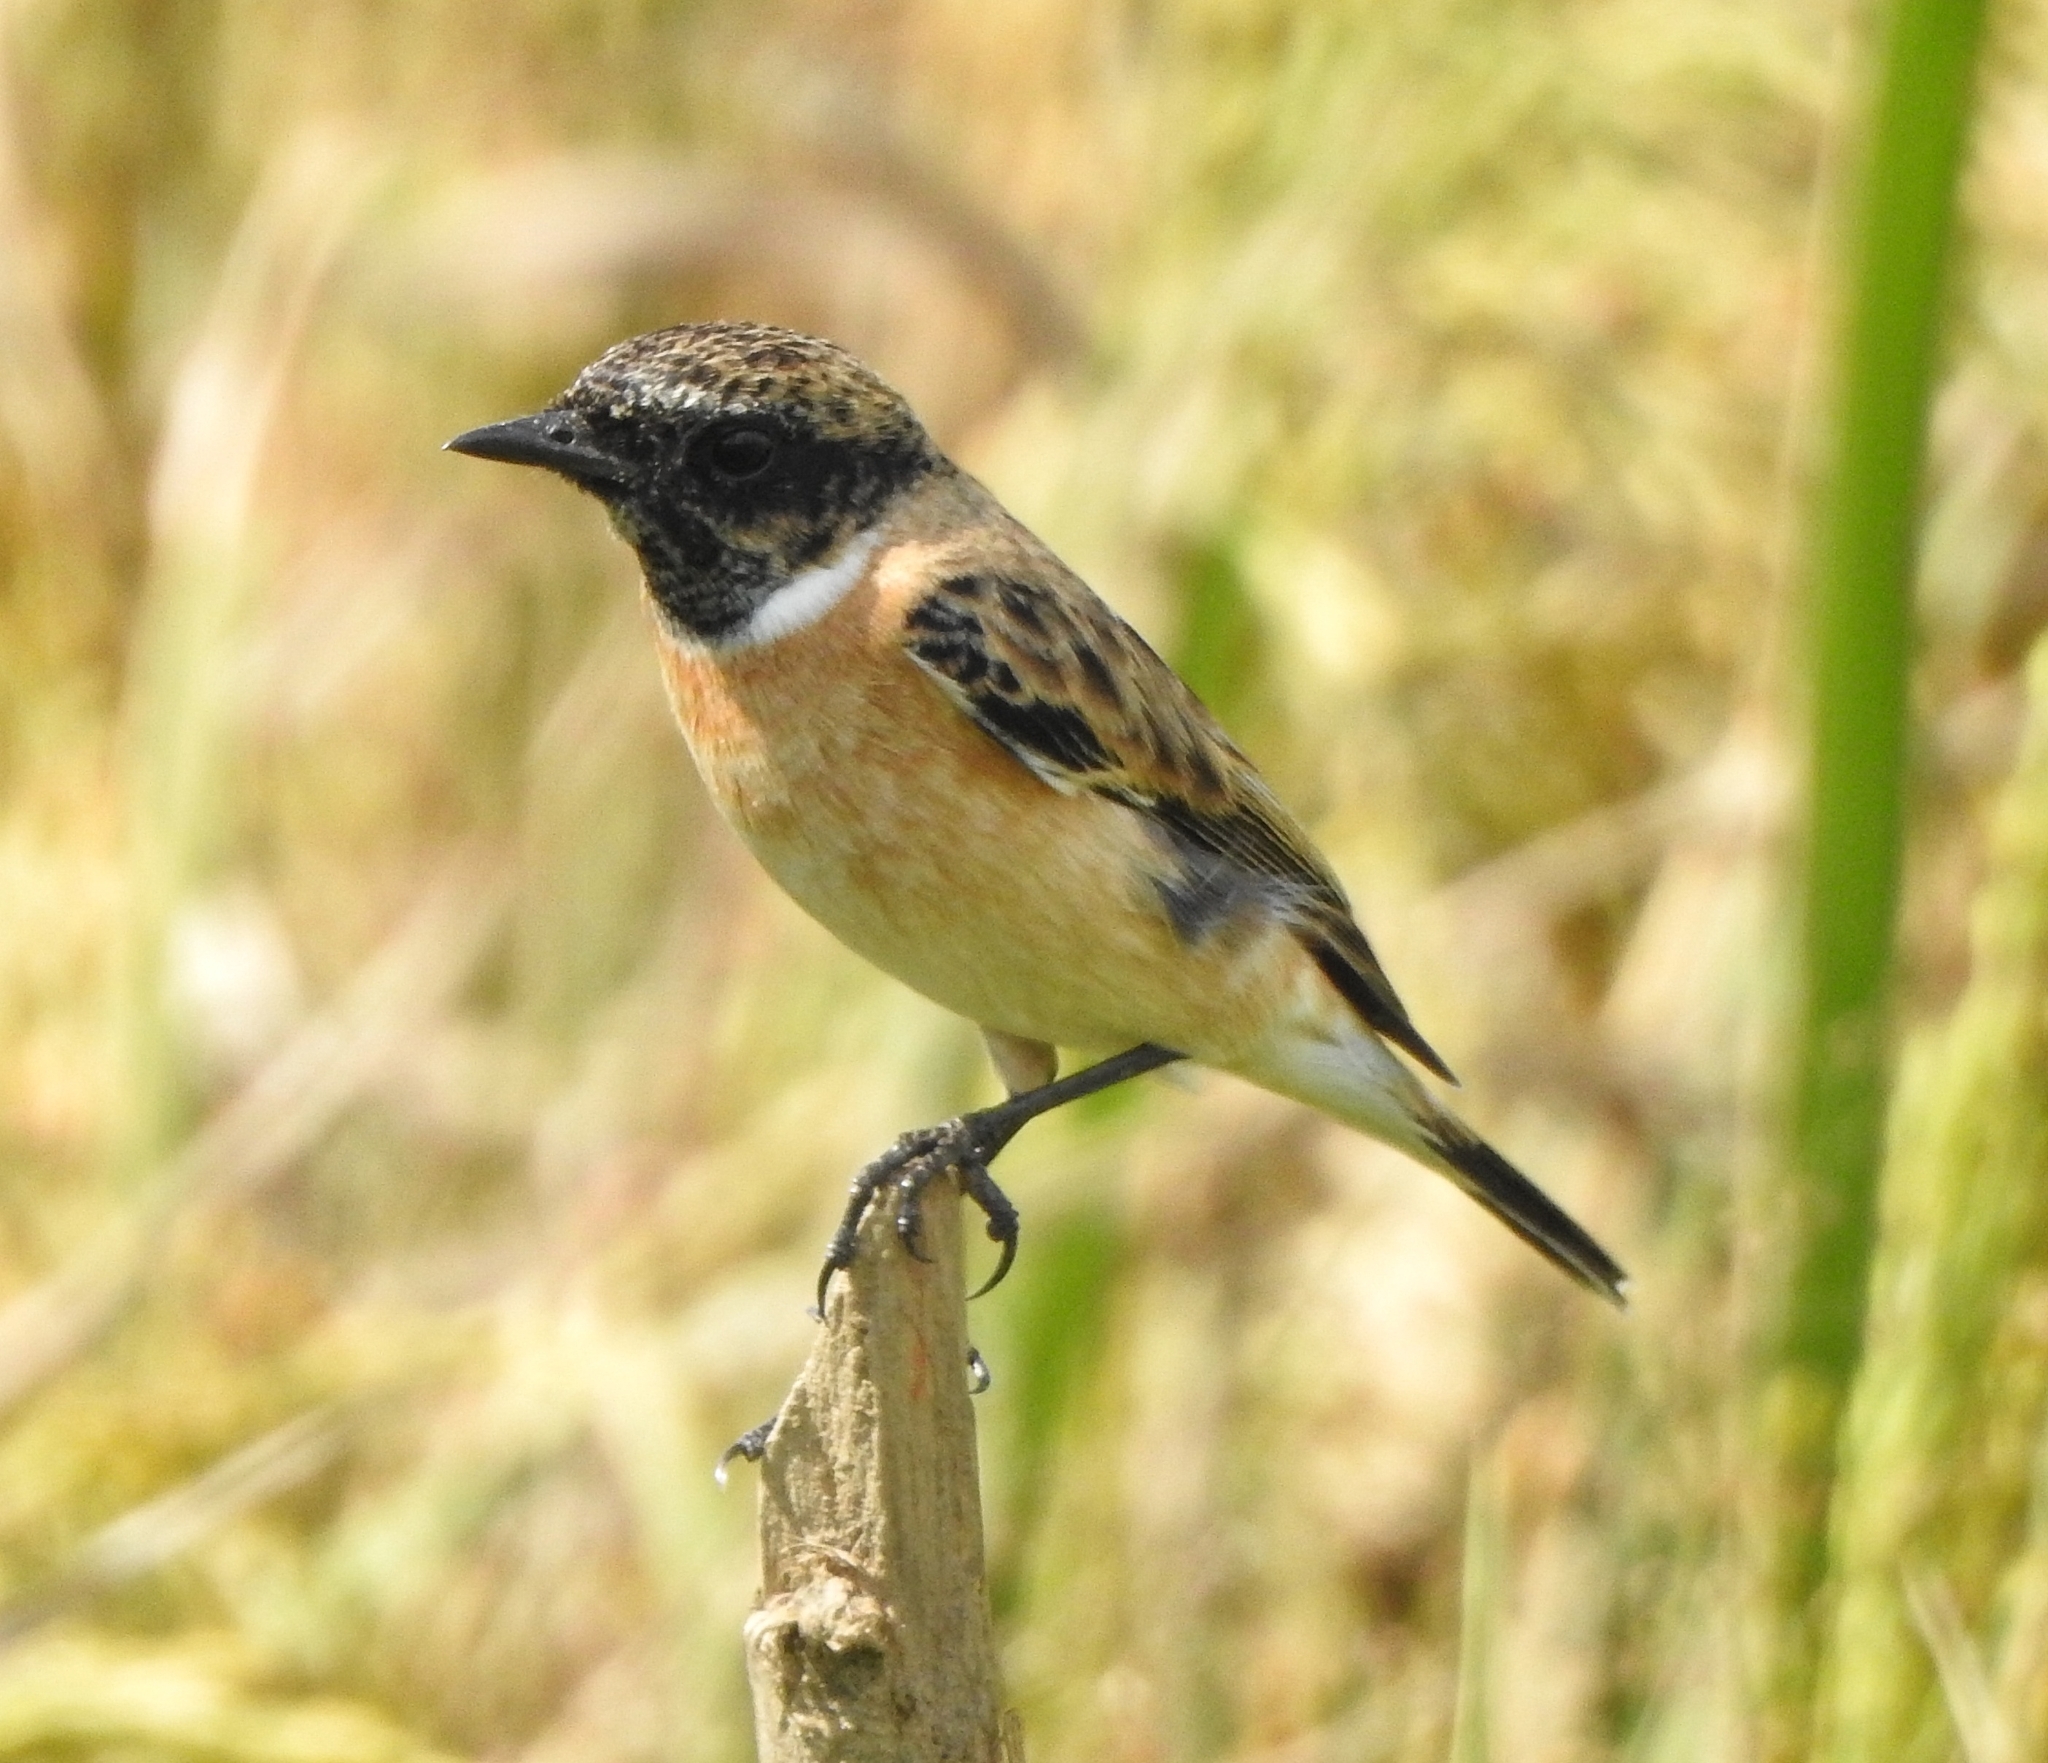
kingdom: Animalia
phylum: Chordata
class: Aves
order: Passeriformes
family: Muscicapidae
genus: Saxicola
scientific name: Saxicola maurus
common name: Siberian stonechat
